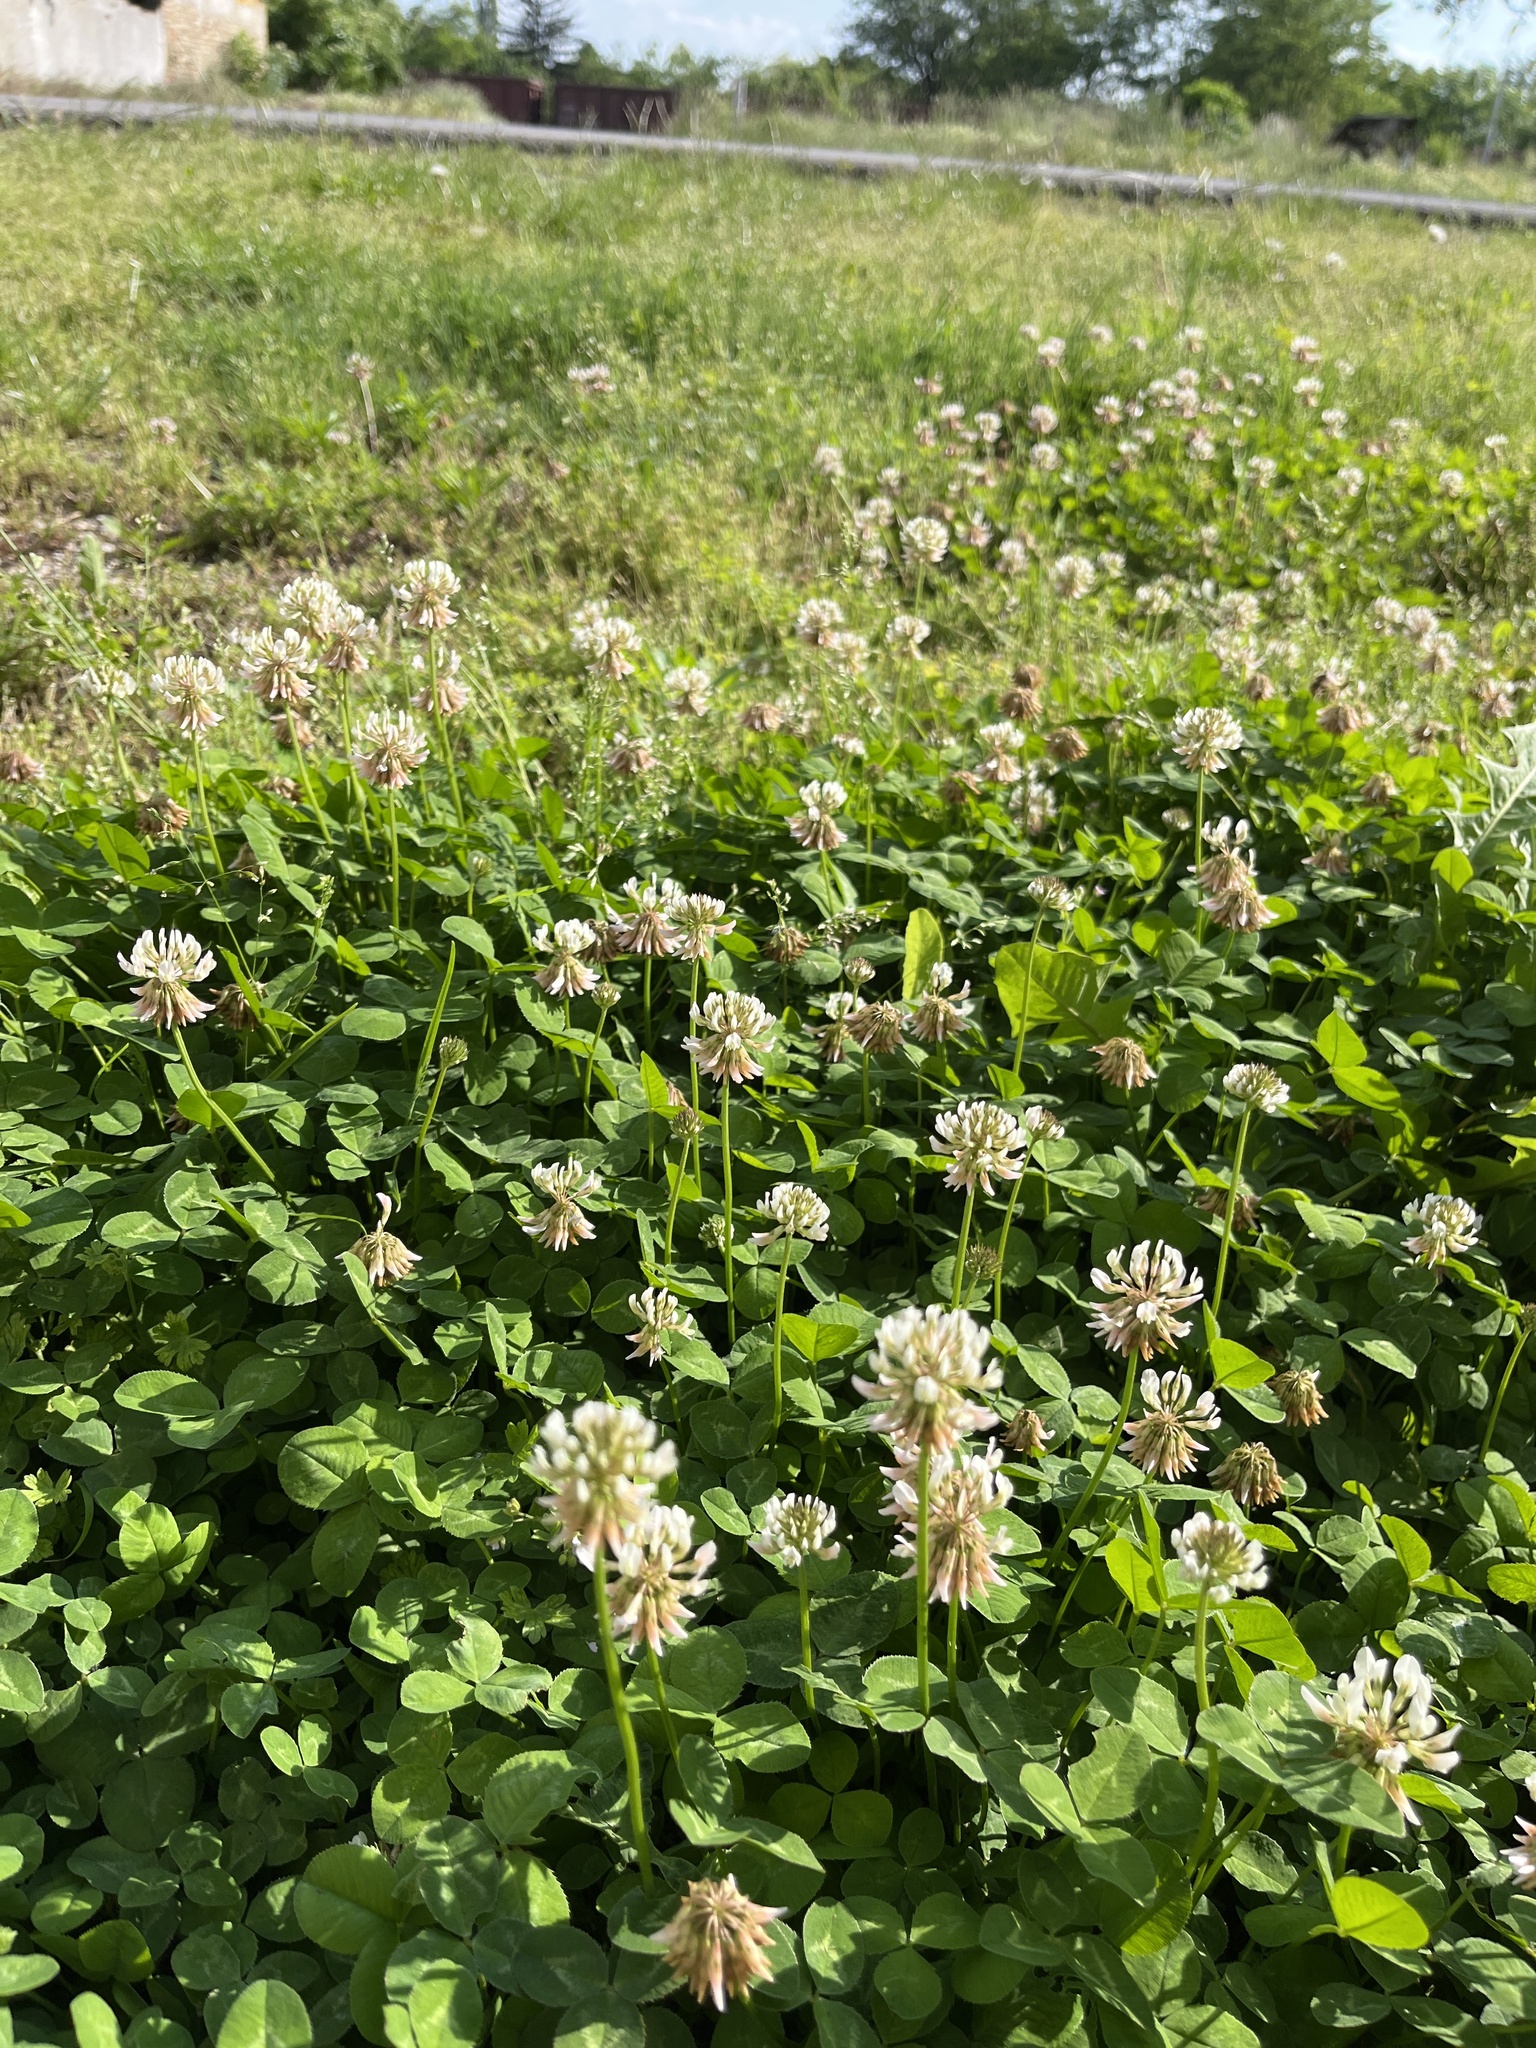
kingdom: Plantae
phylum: Tracheophyta
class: Magnoliopsida
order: Fabales
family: Fabaceae
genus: Trifolium
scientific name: Trifolium repens
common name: White clover
